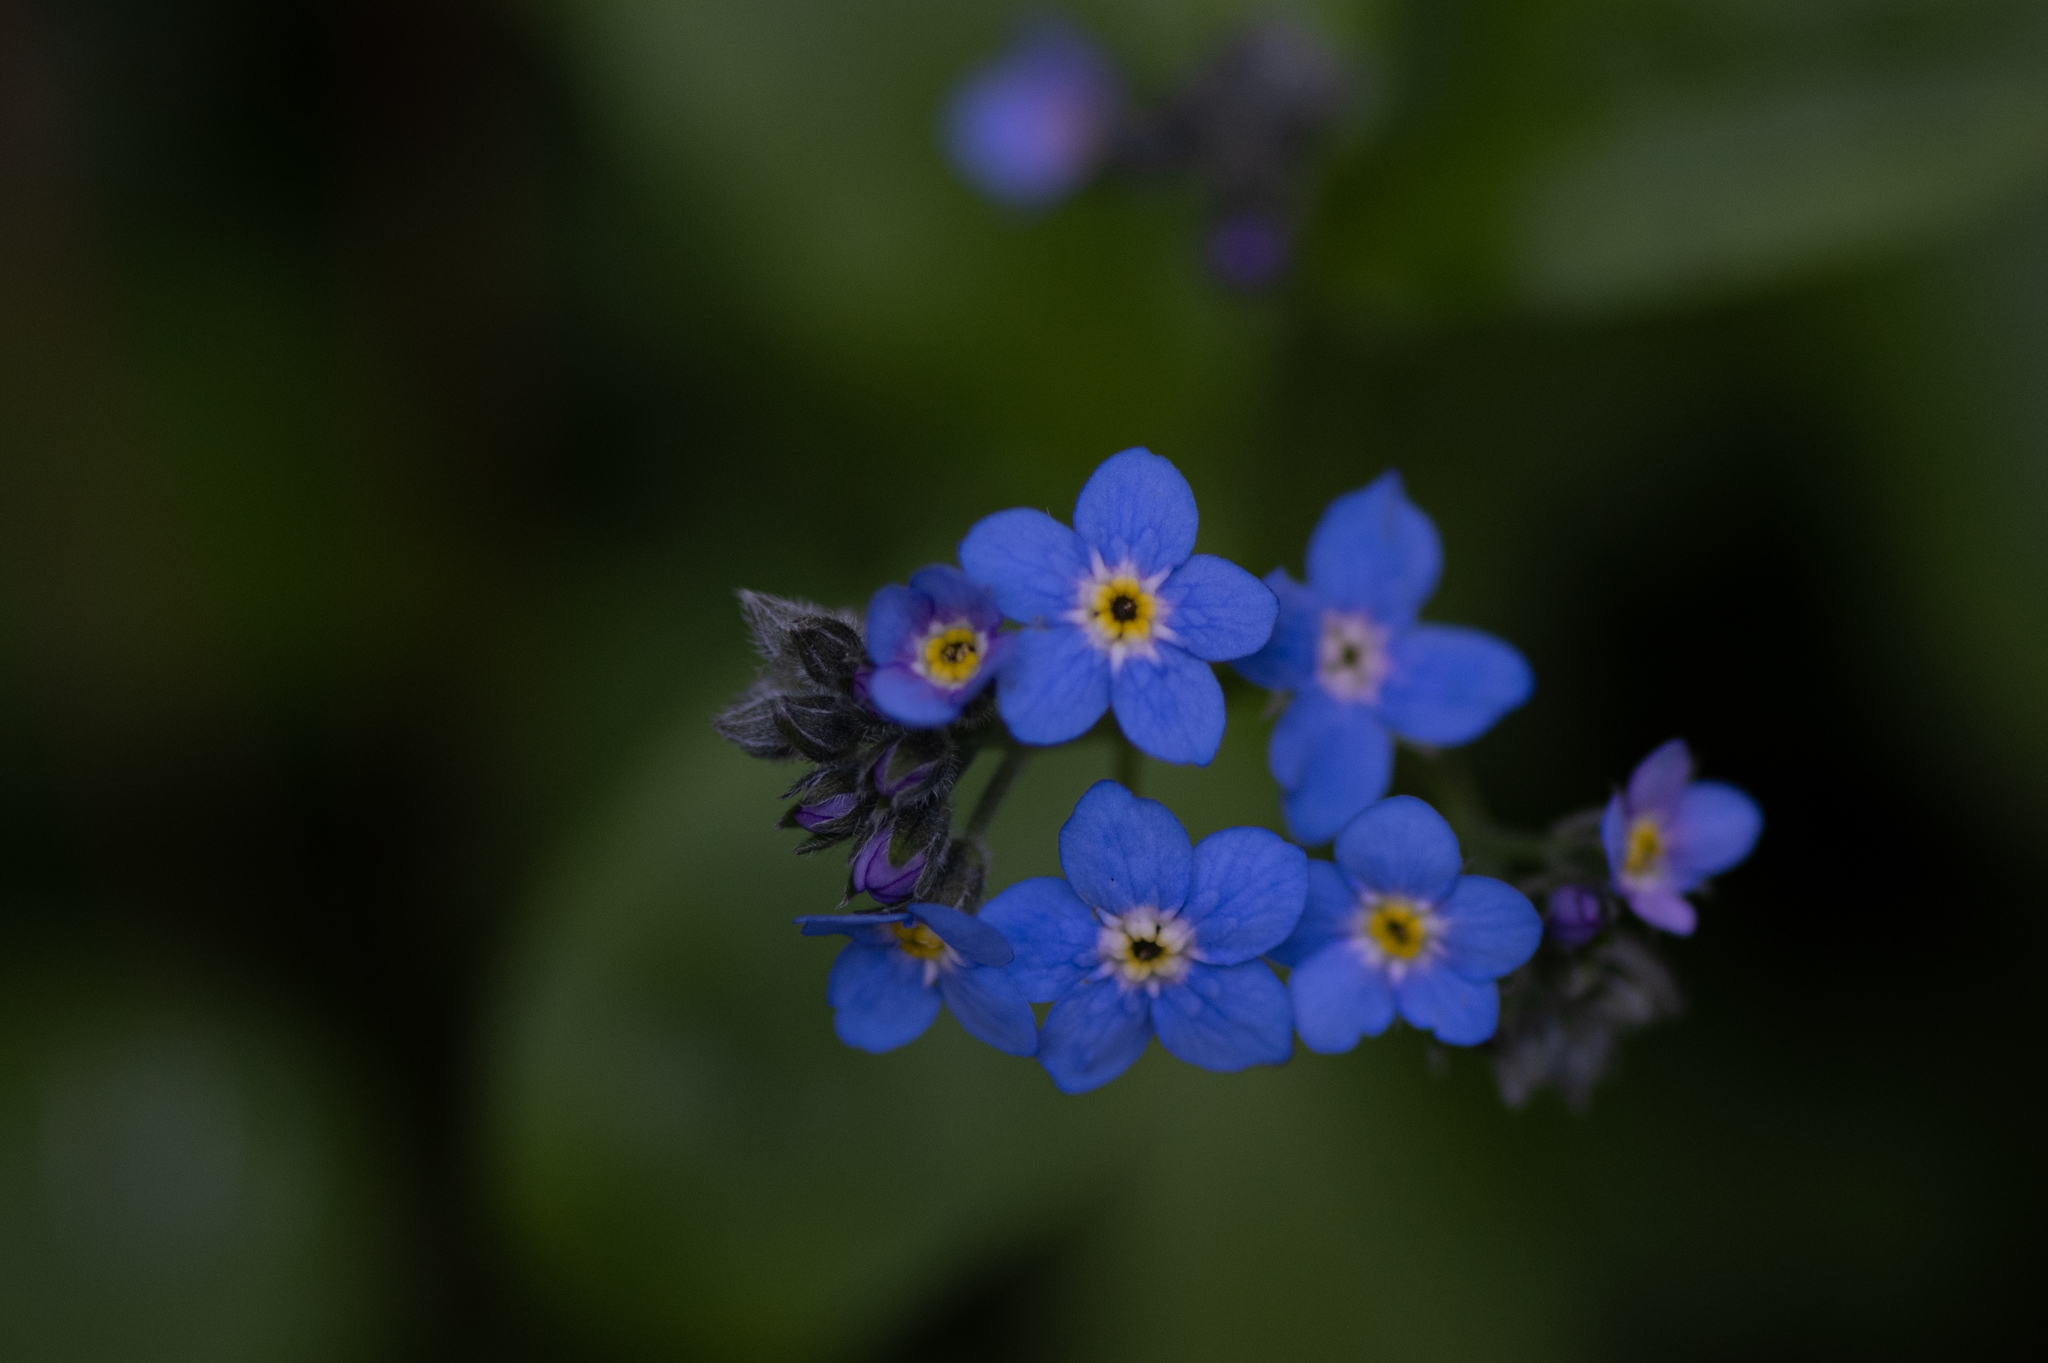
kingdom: Plantae
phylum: Tracheophyta
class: Magnoliopsida
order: Boraginales
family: Boraginaceae
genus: Myosotis
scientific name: Myosotis latifolia
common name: Broadleaf forget-me-not
